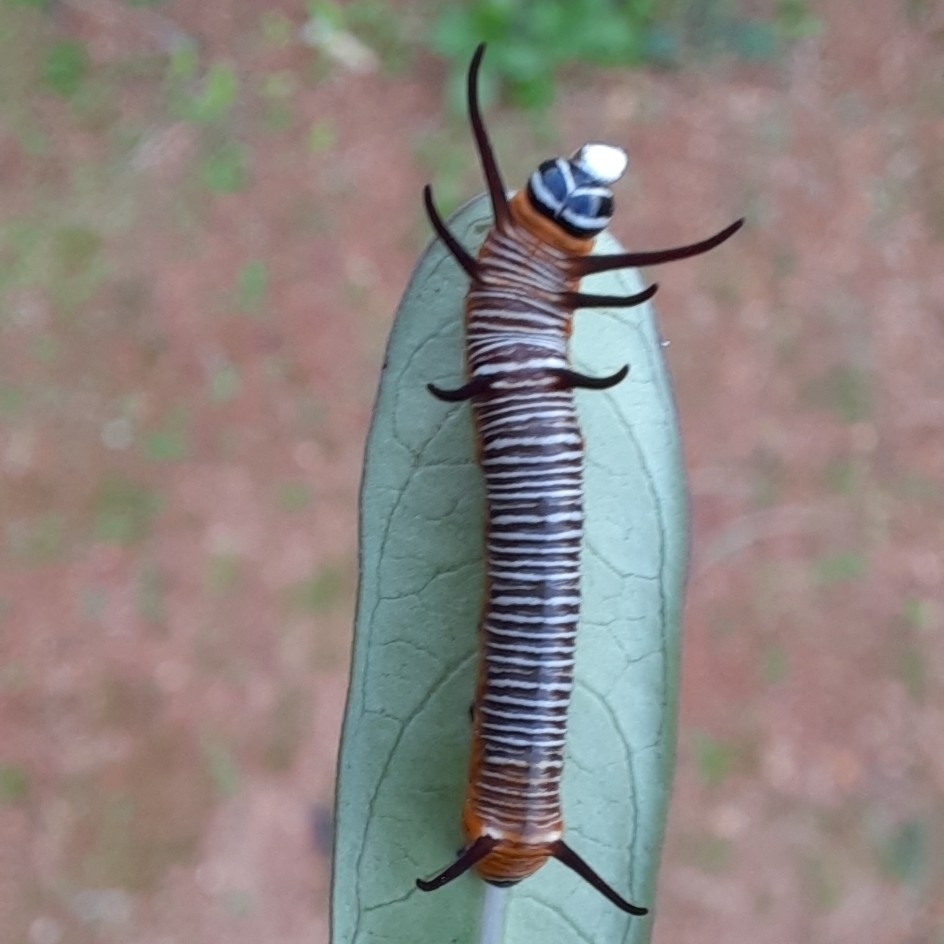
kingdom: Animalia
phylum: Arthropoda
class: Insecta
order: Lepidoptera
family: Nymphalidae
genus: Euploea
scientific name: Euploea core
